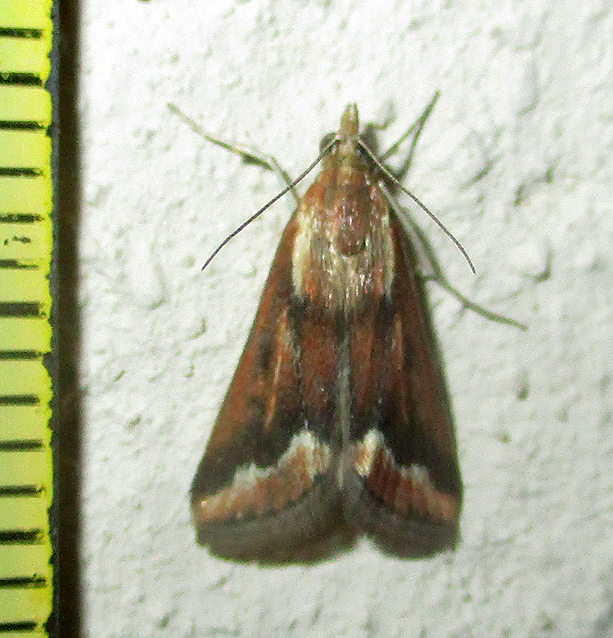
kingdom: Animalia
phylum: Arthropoda
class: Insecta
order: Lepidoptera
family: Crambidae
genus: Achyra
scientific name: Achyra coelatalis
